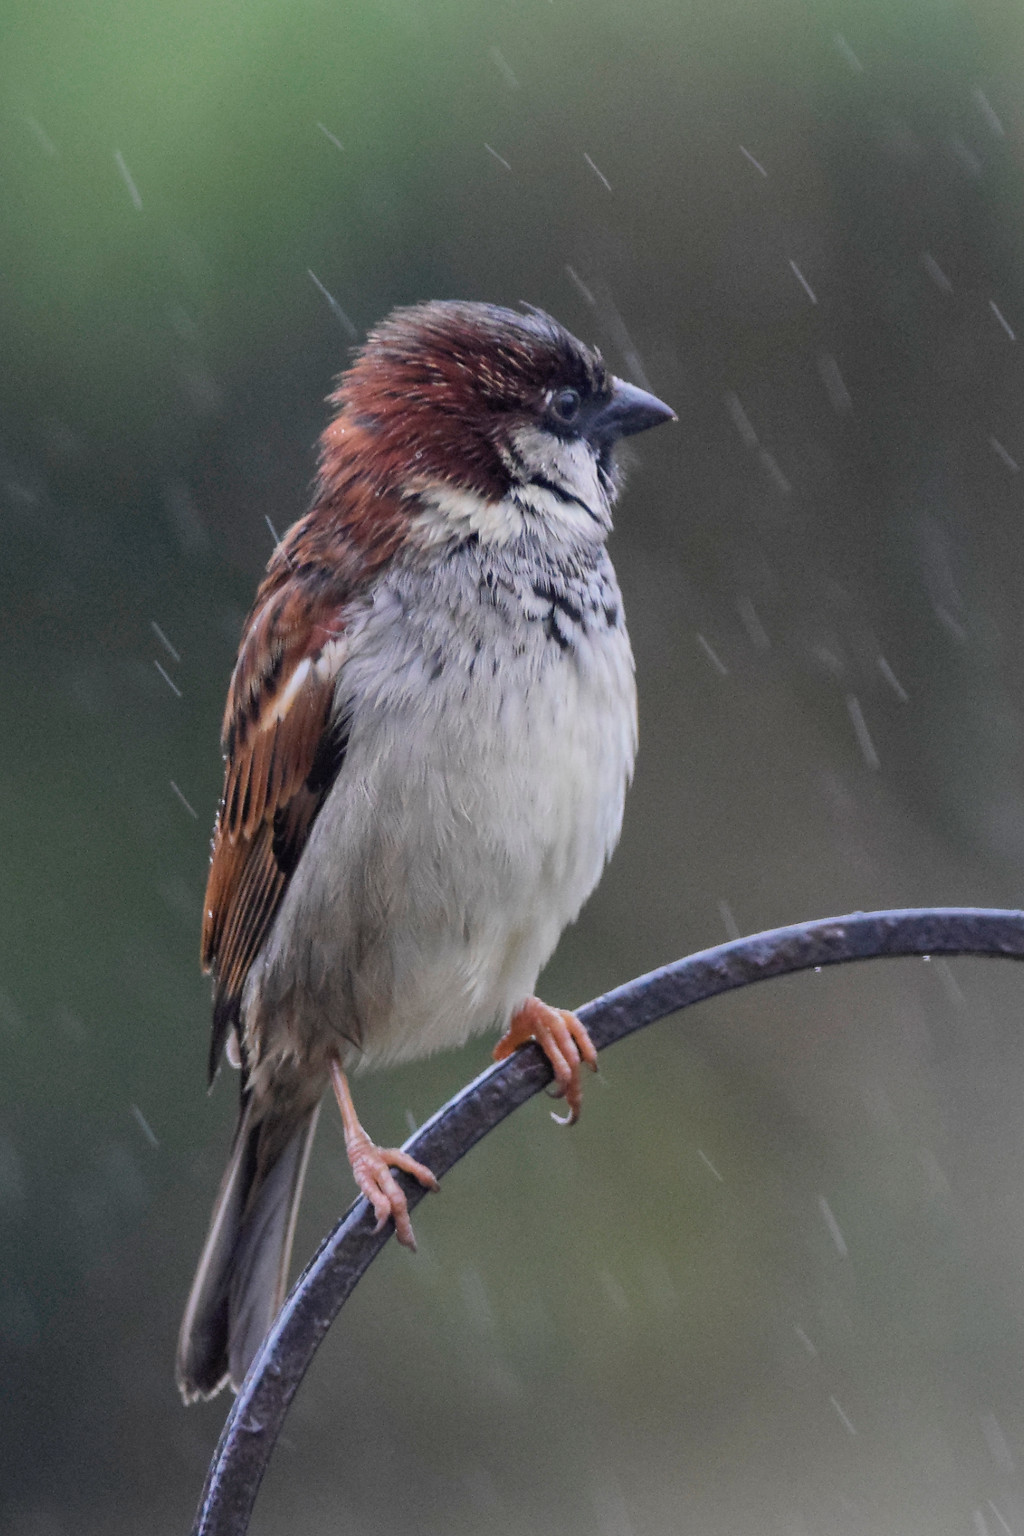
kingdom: Animalia
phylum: Chordata
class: Aves
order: Passeriformes
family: Passeridae
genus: Passer
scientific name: Passer domesticus
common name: House sparrow
